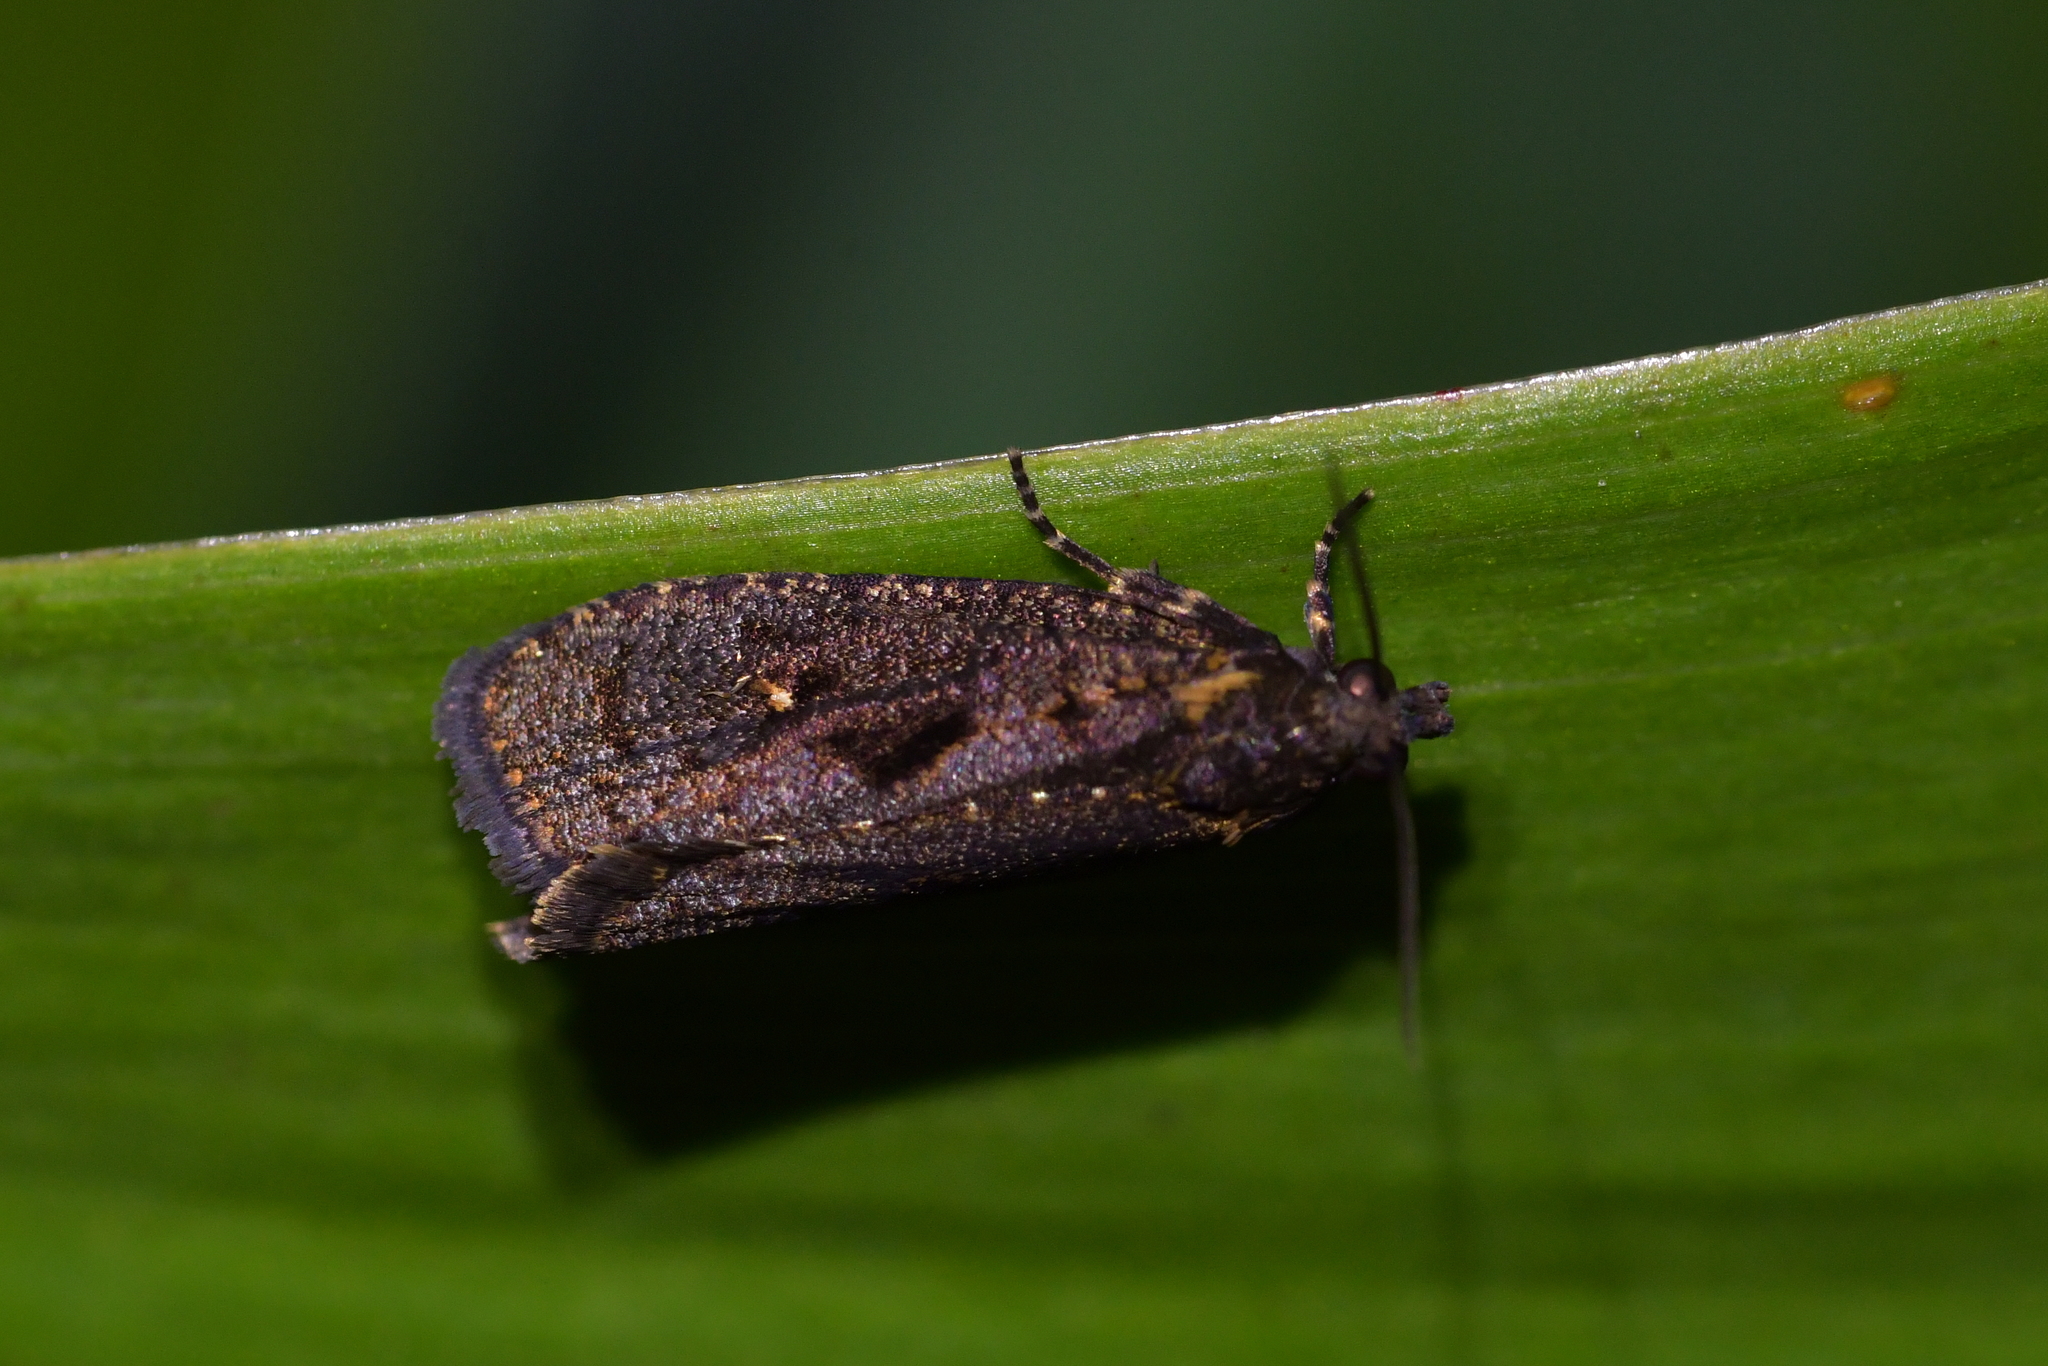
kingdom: Animalia
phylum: Arthropoda
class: Insecta
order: Lepidoptera
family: Tortricidae
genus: Cryptaspasma
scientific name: Cryptaspasma querula
